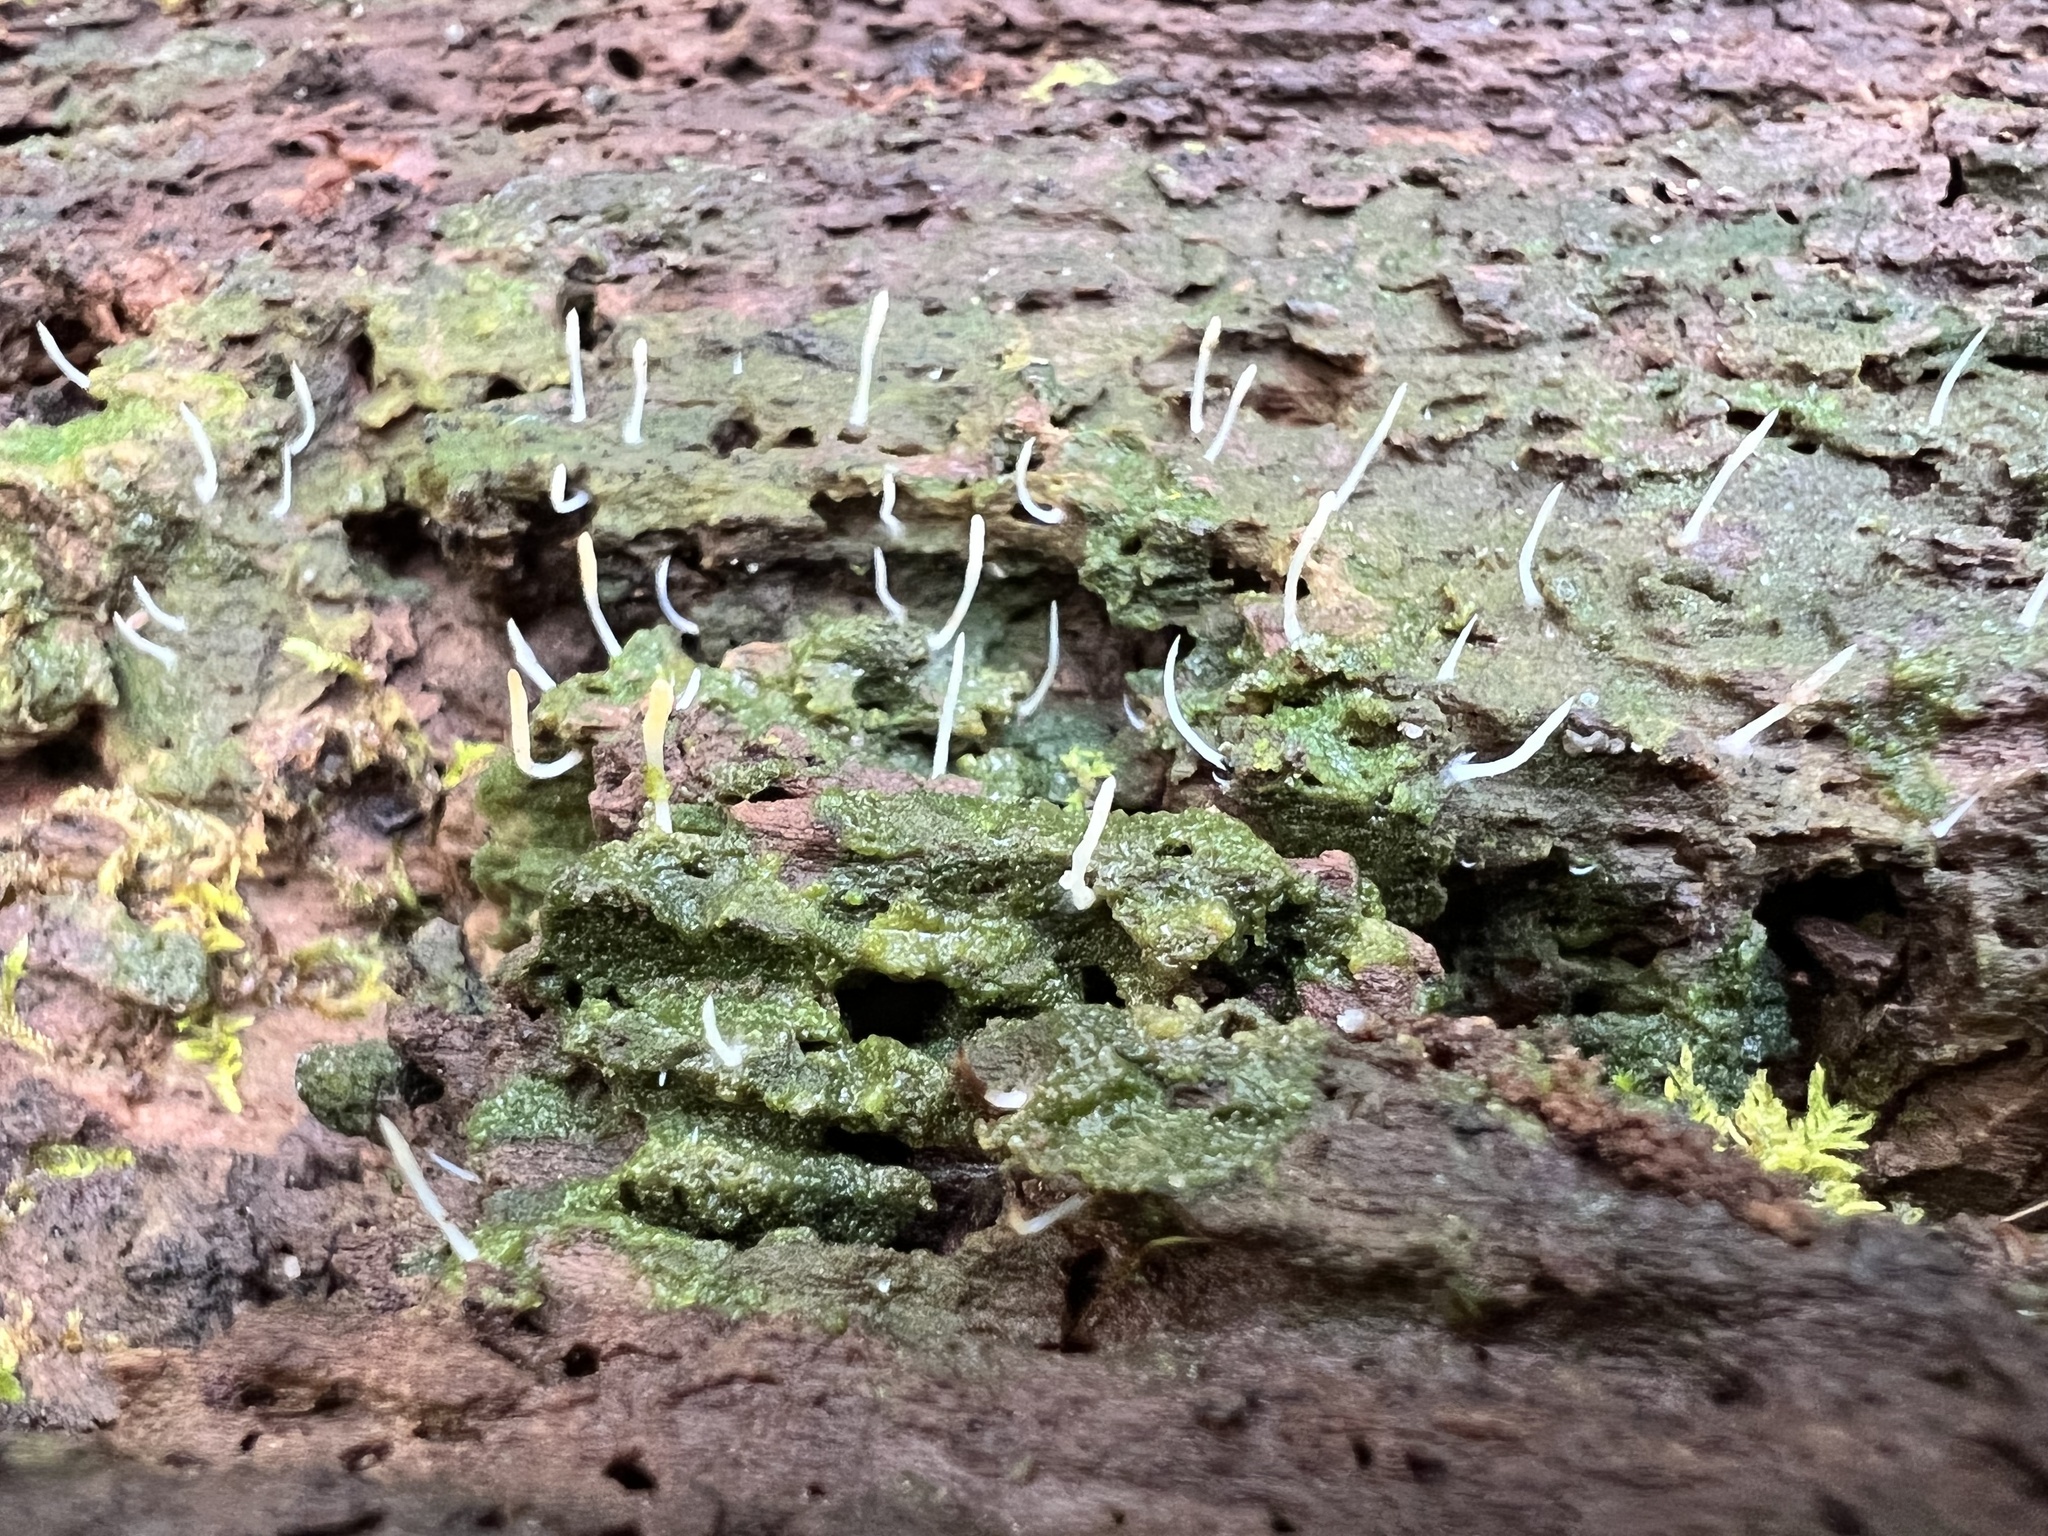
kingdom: Fungi
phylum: Basidiomycota
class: Agaricomycetes
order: Cantharellales
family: Hydnaceae
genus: Multiclavula
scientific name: Multiclavula mucida
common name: White green-algae coral
